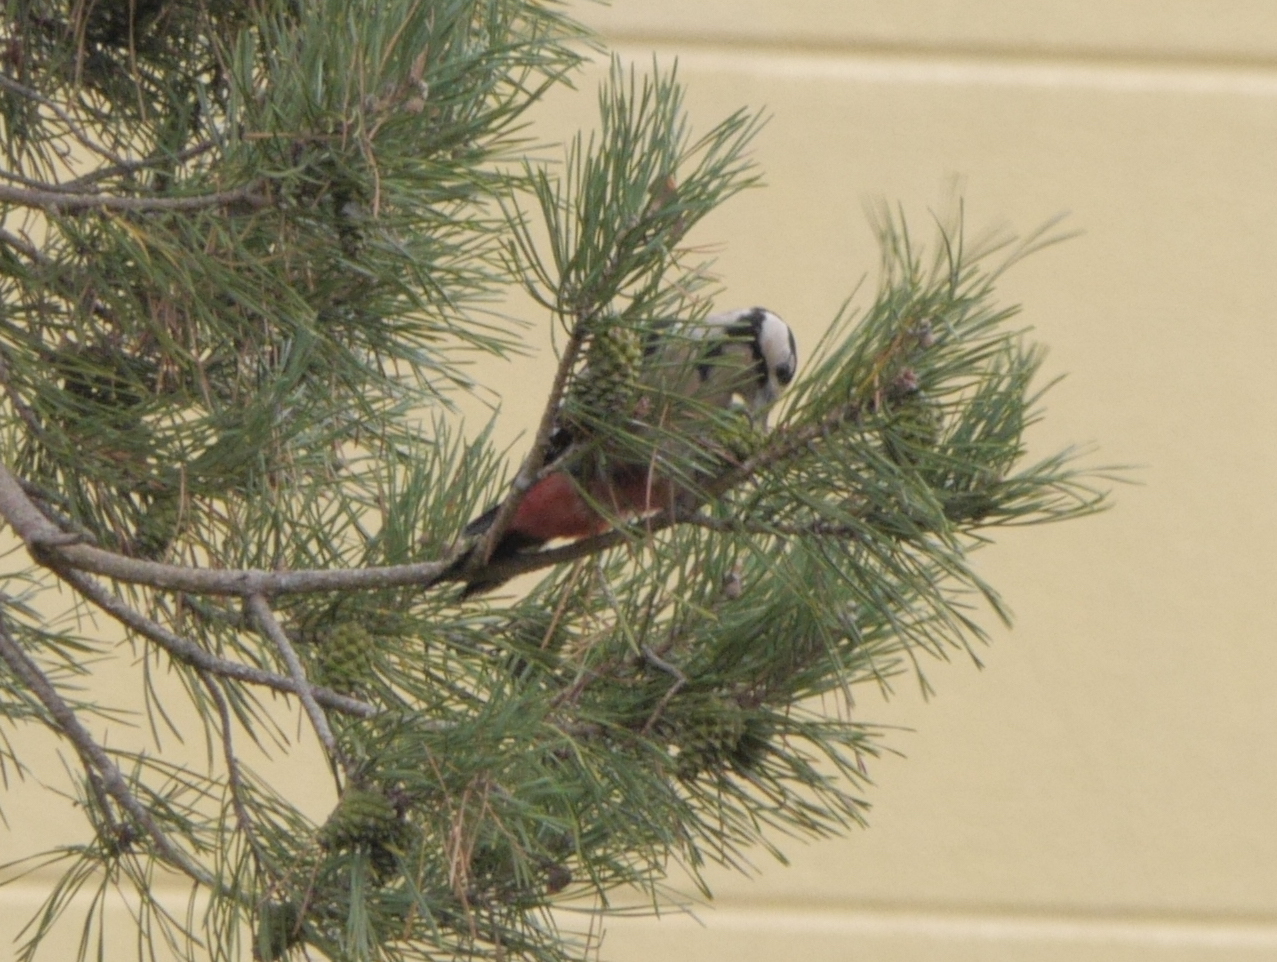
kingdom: Animalia
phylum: Chordata
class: Aves
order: Piciformes
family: Picidae
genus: Dendrocopos
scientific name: Dendrocopos major
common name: Great spotted woodpecker
